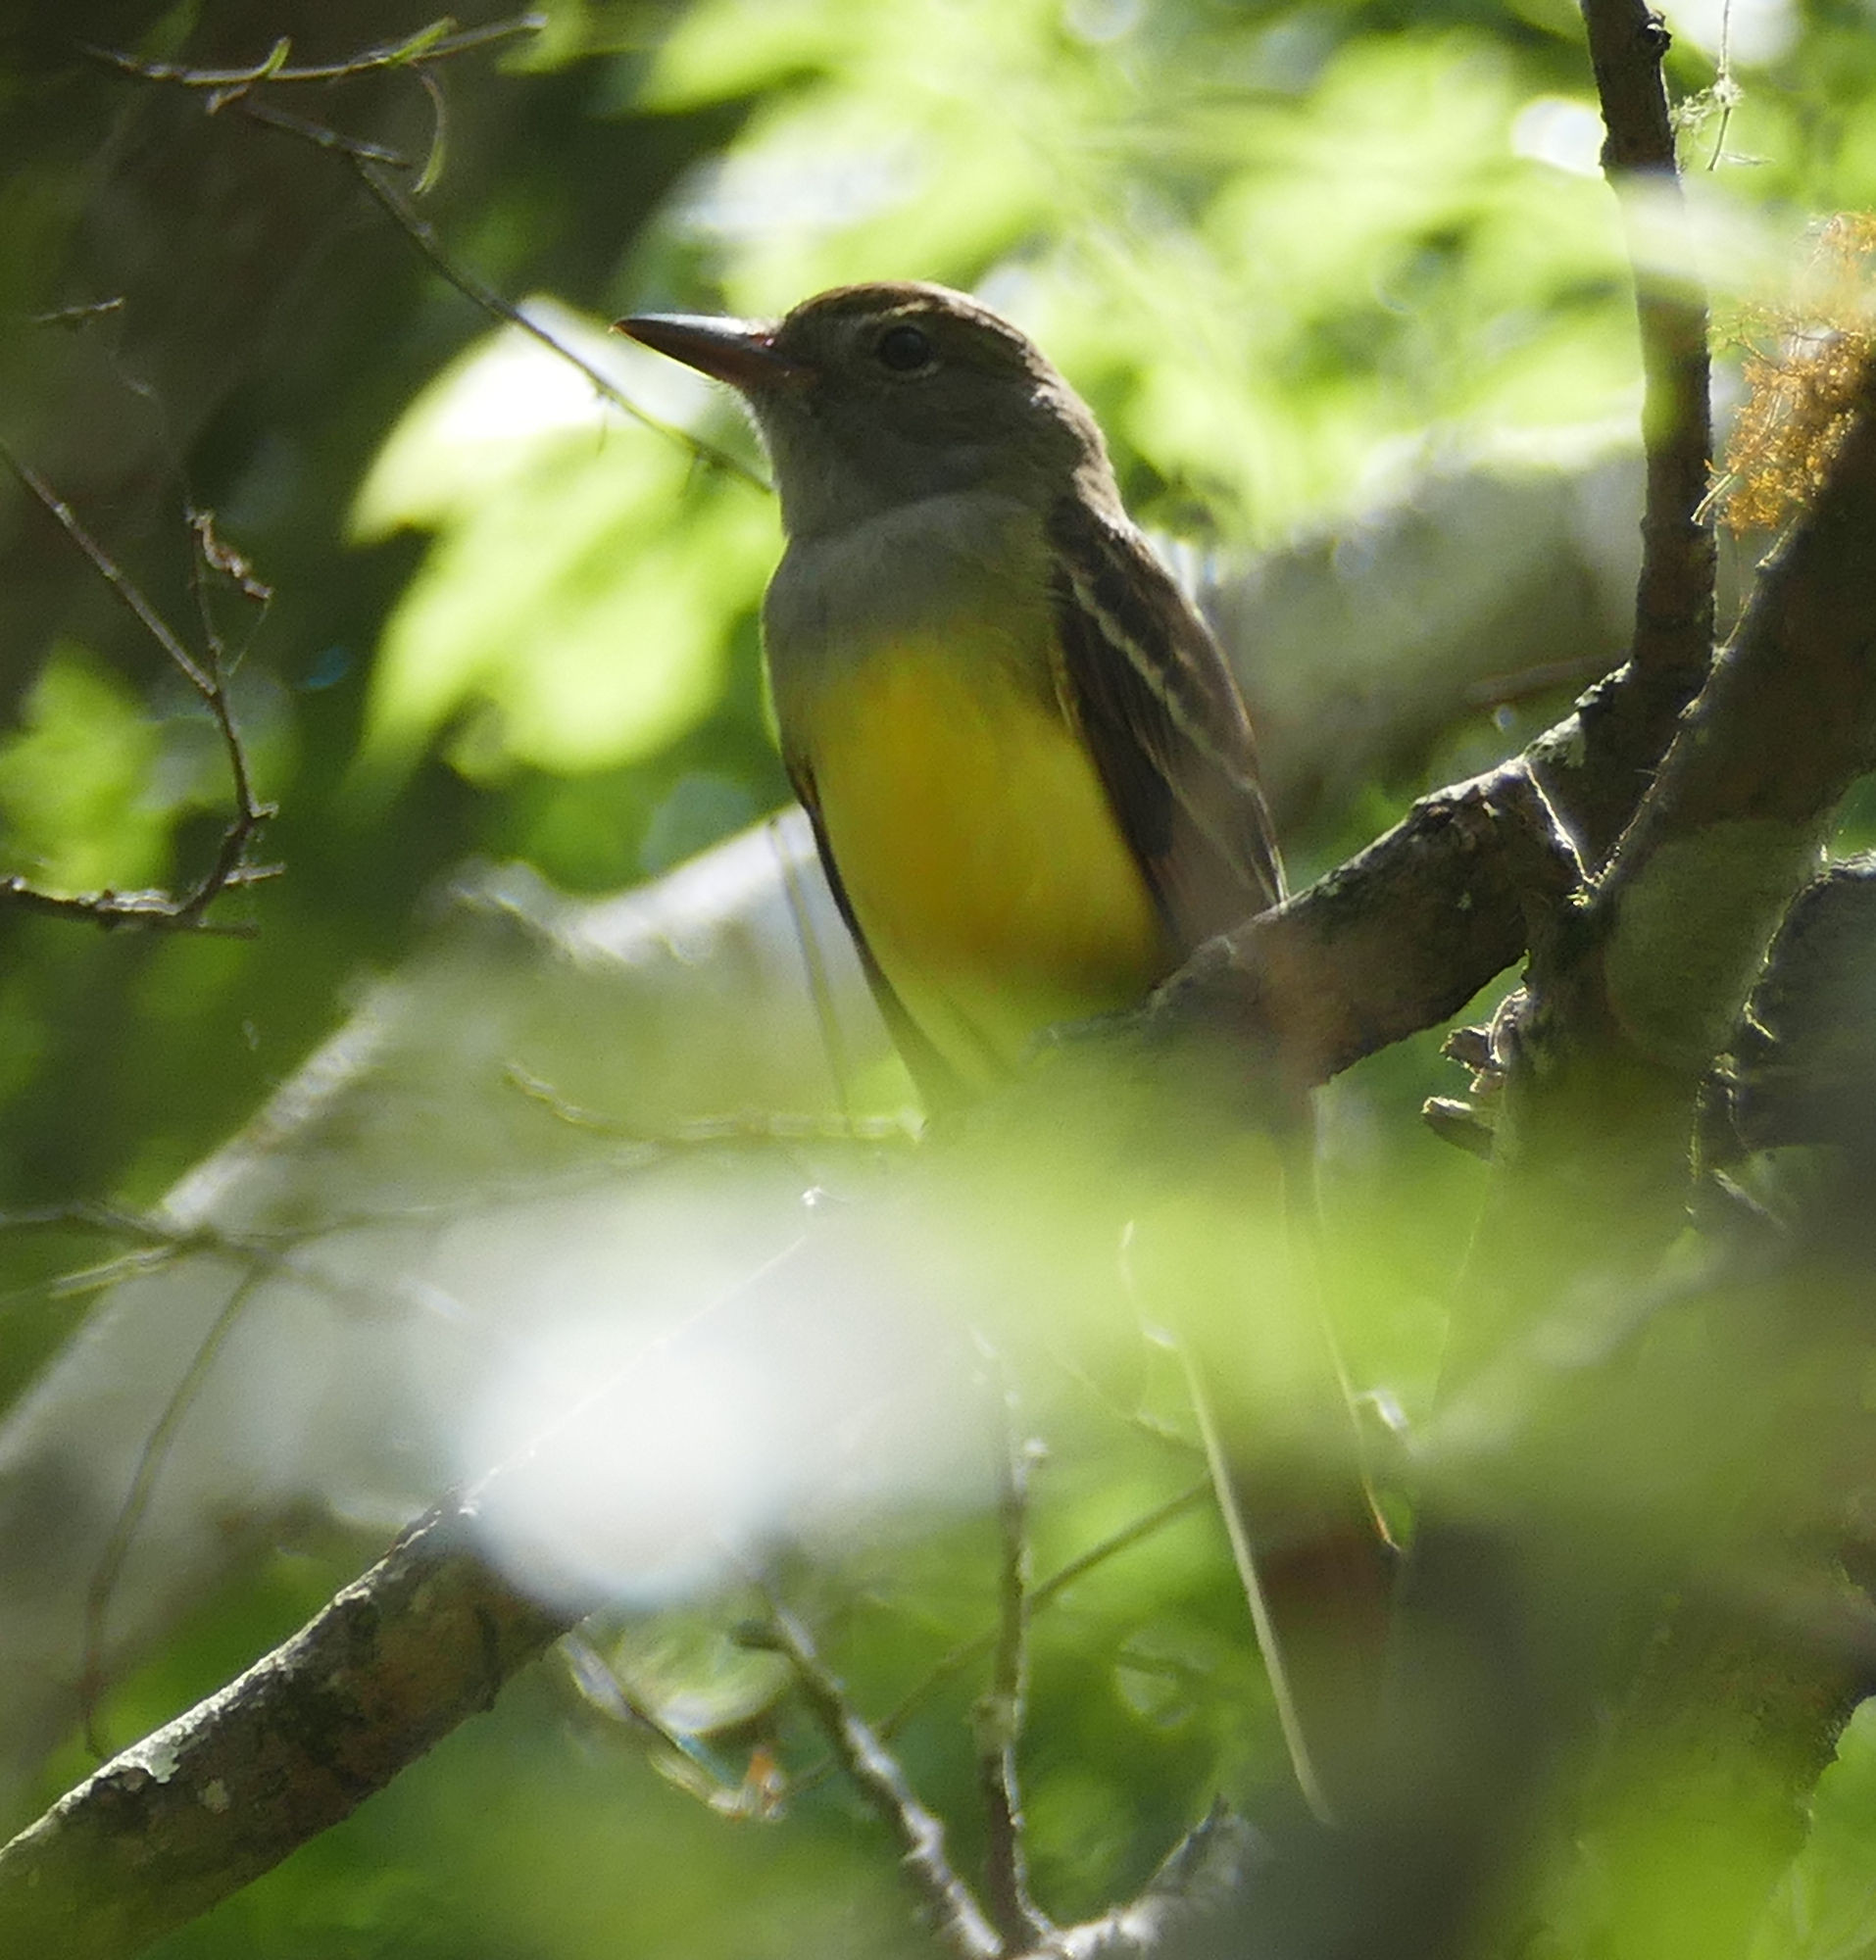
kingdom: Animalia
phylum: Chordata
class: Aves
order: Passeriformes
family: Tyrannidae
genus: Myiarchus
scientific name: Myiarchus crinitus
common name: Great crested flycatcher
